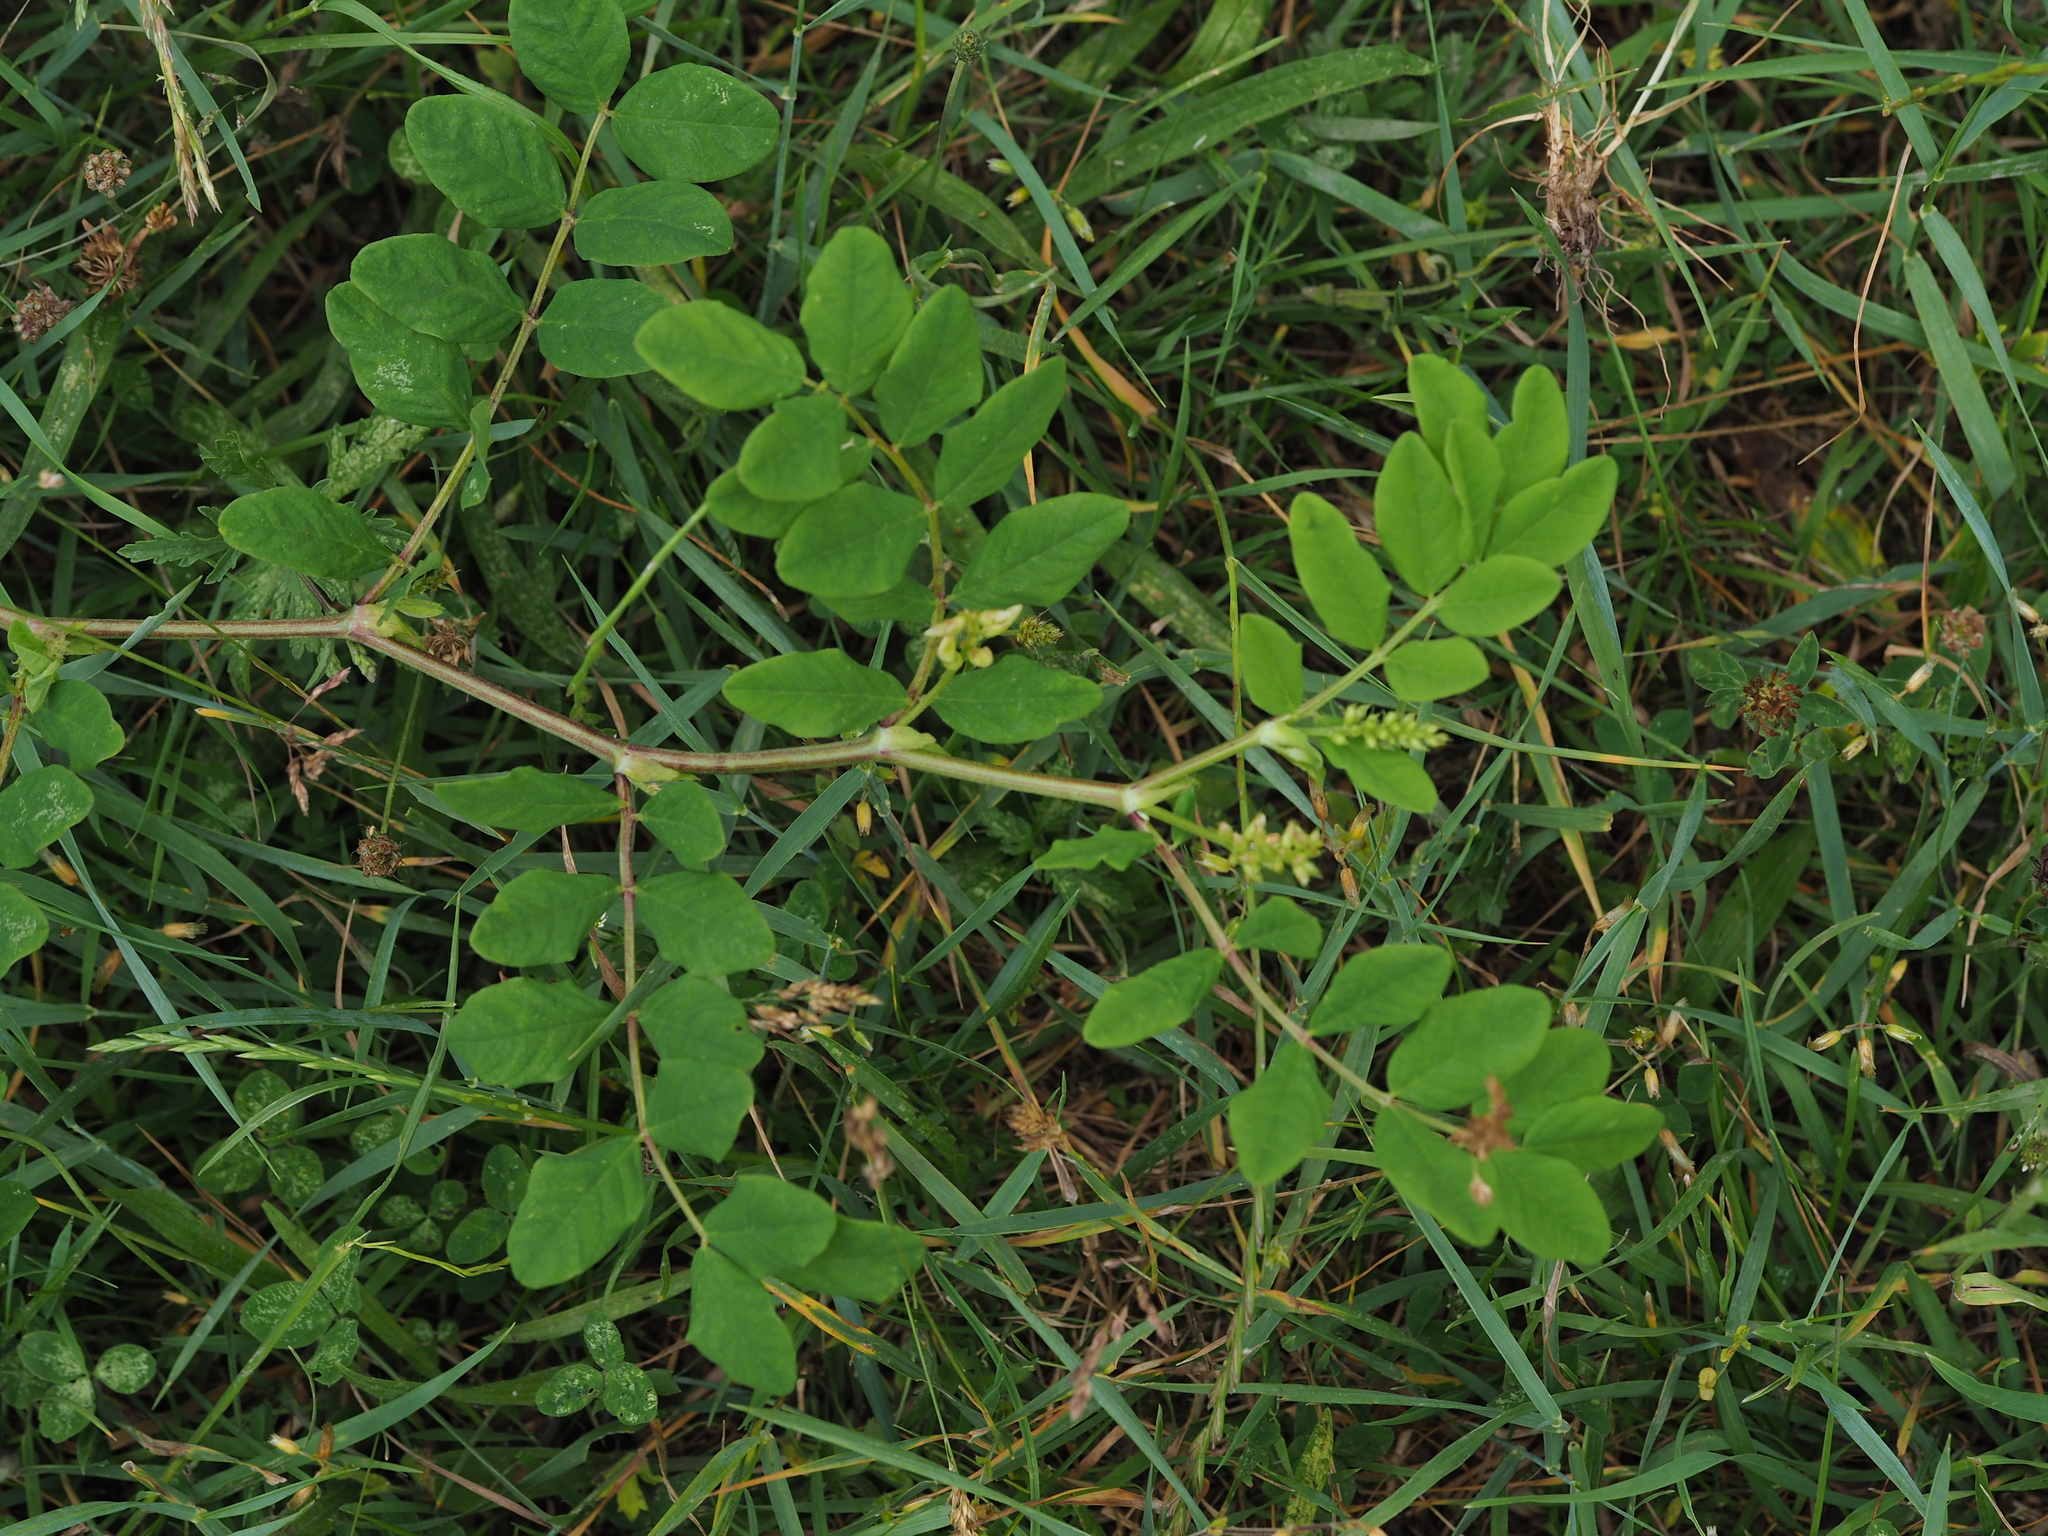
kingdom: Plantae
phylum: Tracheophyta
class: Magnoliopsida
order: Fabales
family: Fabaceae
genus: Astragalus
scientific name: Astragalus glycyphyllos
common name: Wild liquorice
